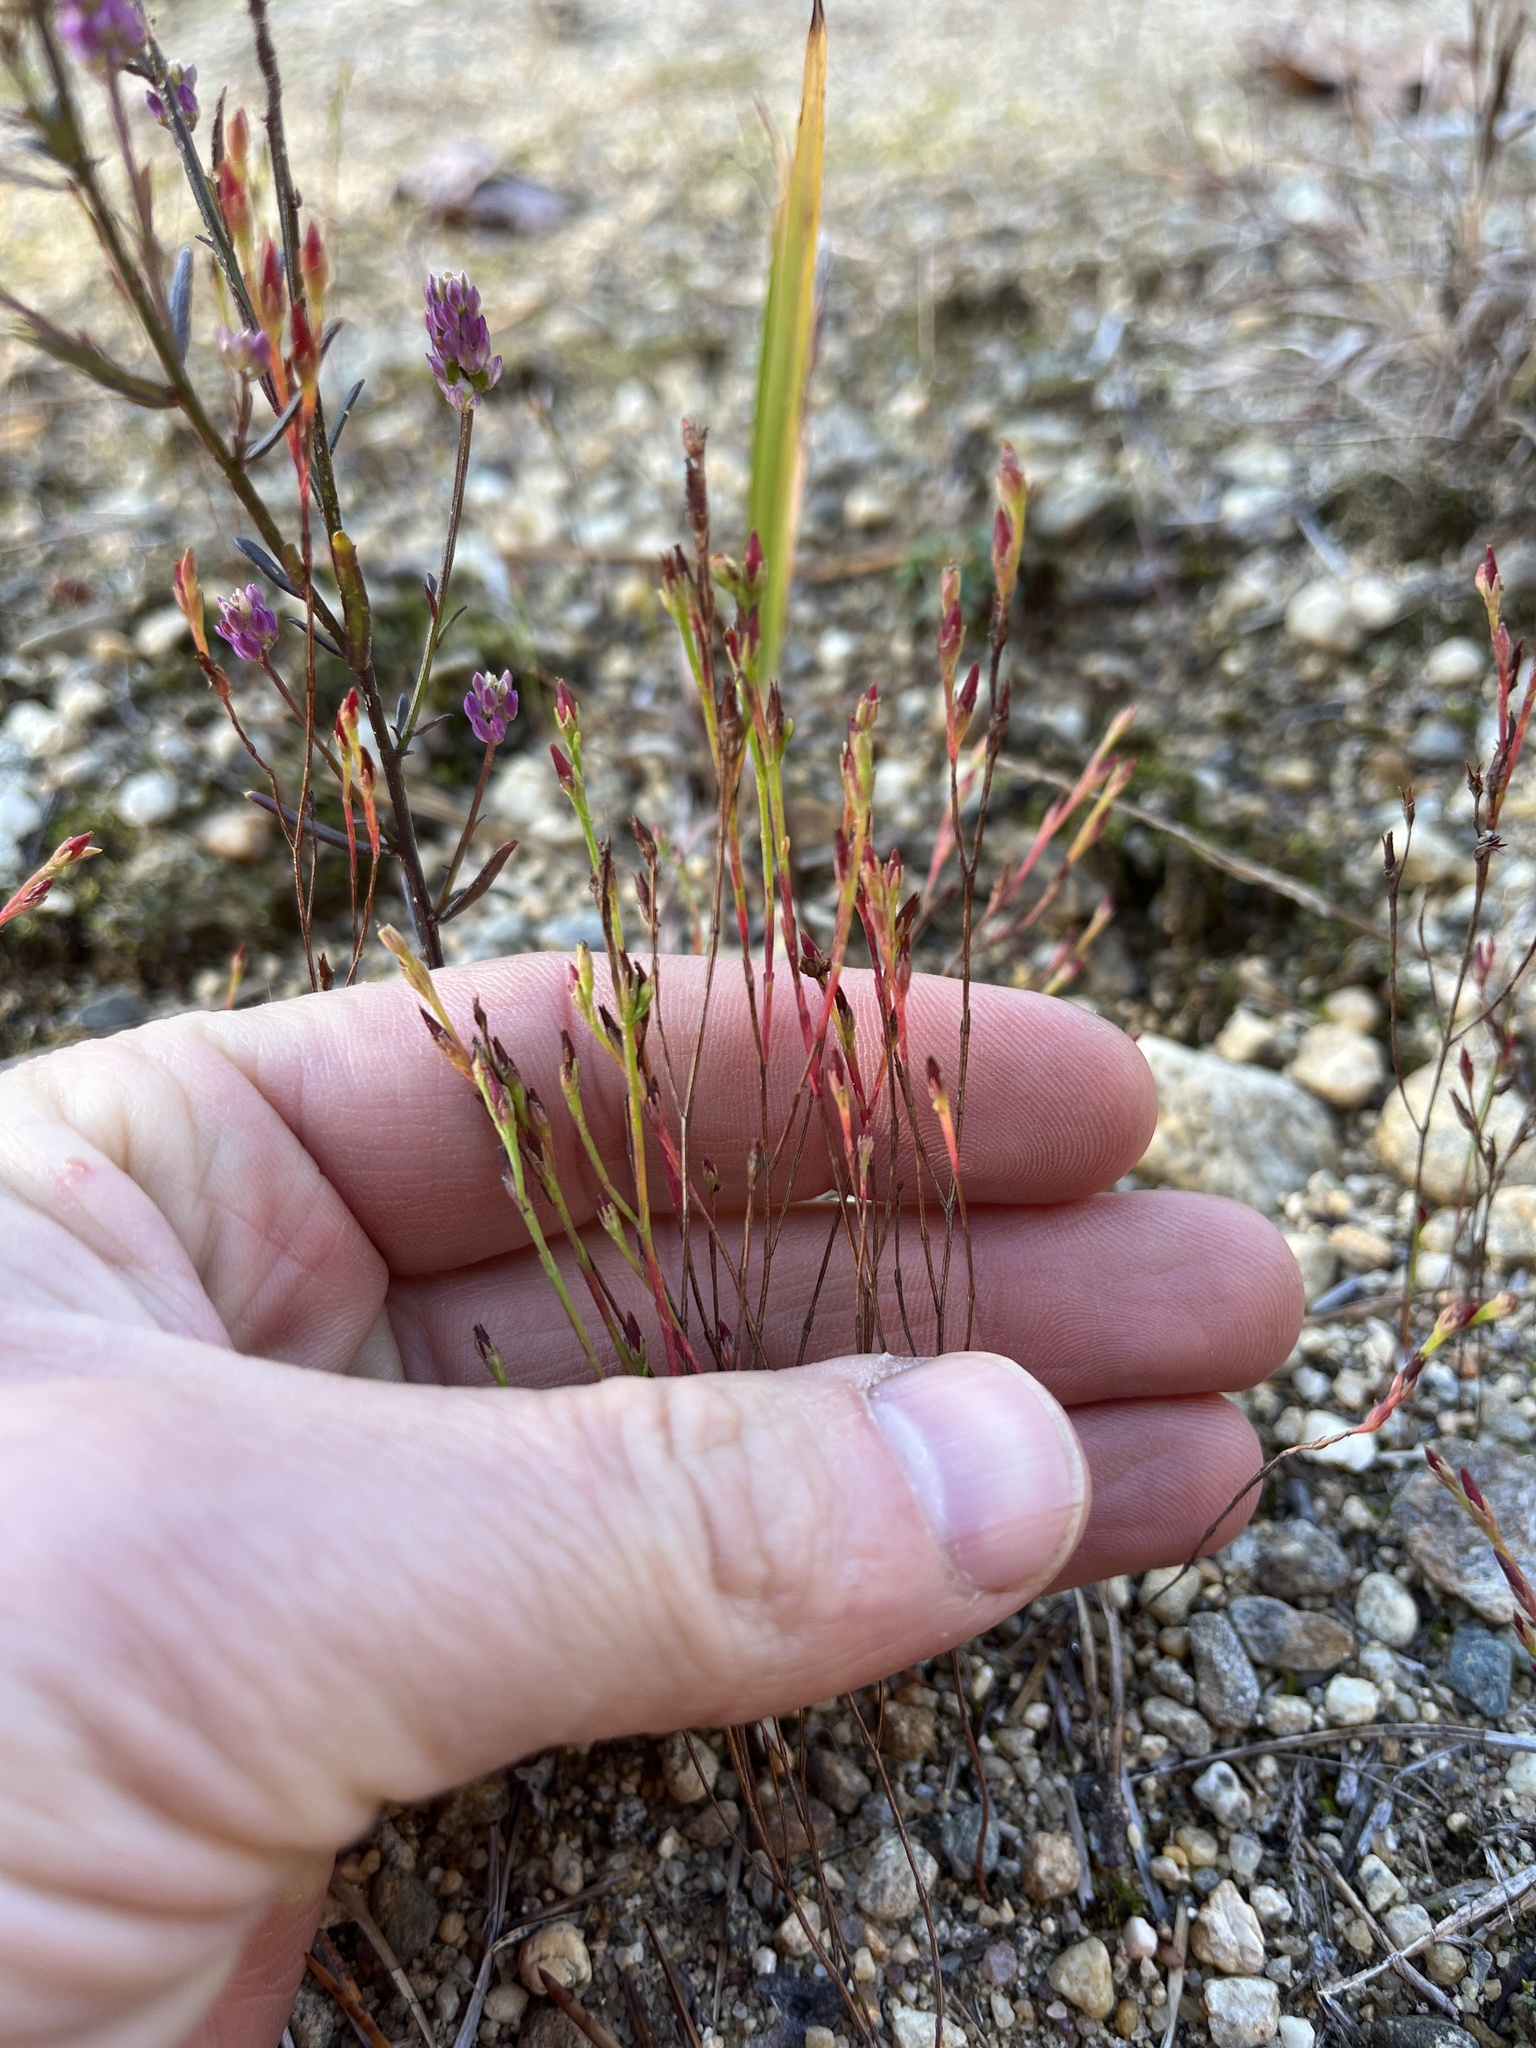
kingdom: Plantae
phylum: Tracheophyta
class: Magnoliopsida
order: Malpighiales
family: Hypericaceae
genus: Hypericum
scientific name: Hypericum gentianoides
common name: Gentian-leaved st. john's-wort
